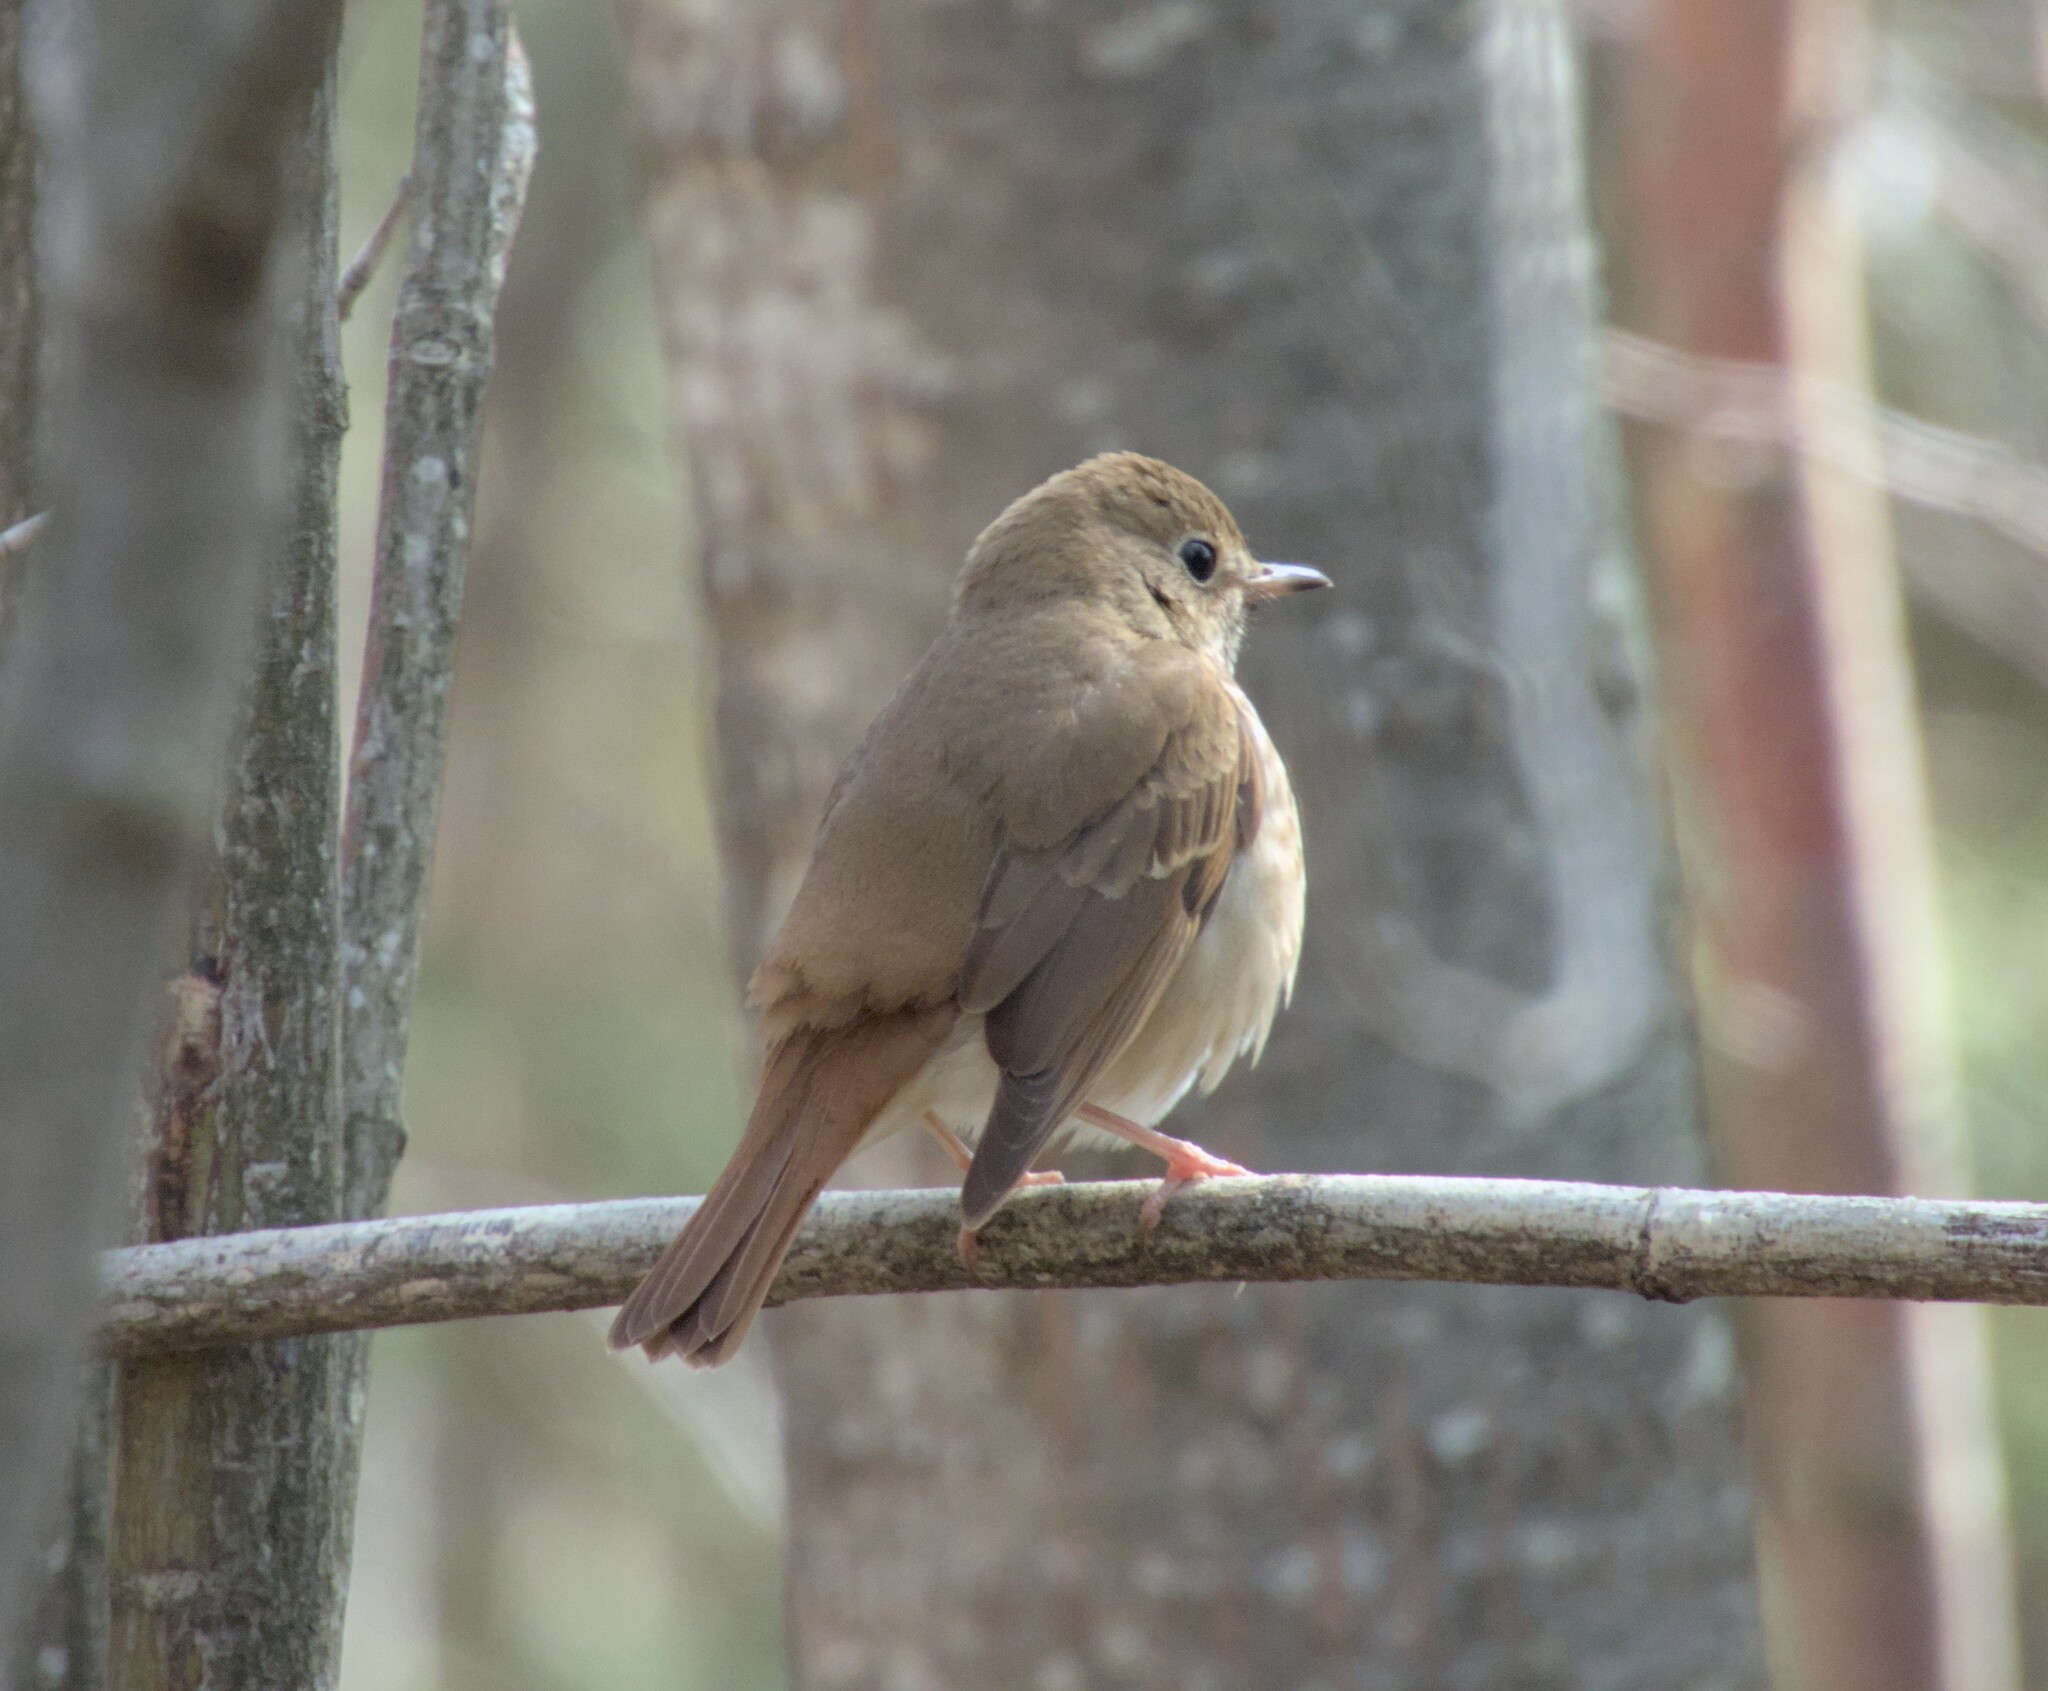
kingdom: Animalia
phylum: Chordata
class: Aves
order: Passeriformes
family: Turdidae
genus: Catharus
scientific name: Catharus guttatus
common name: Hermit thrush
